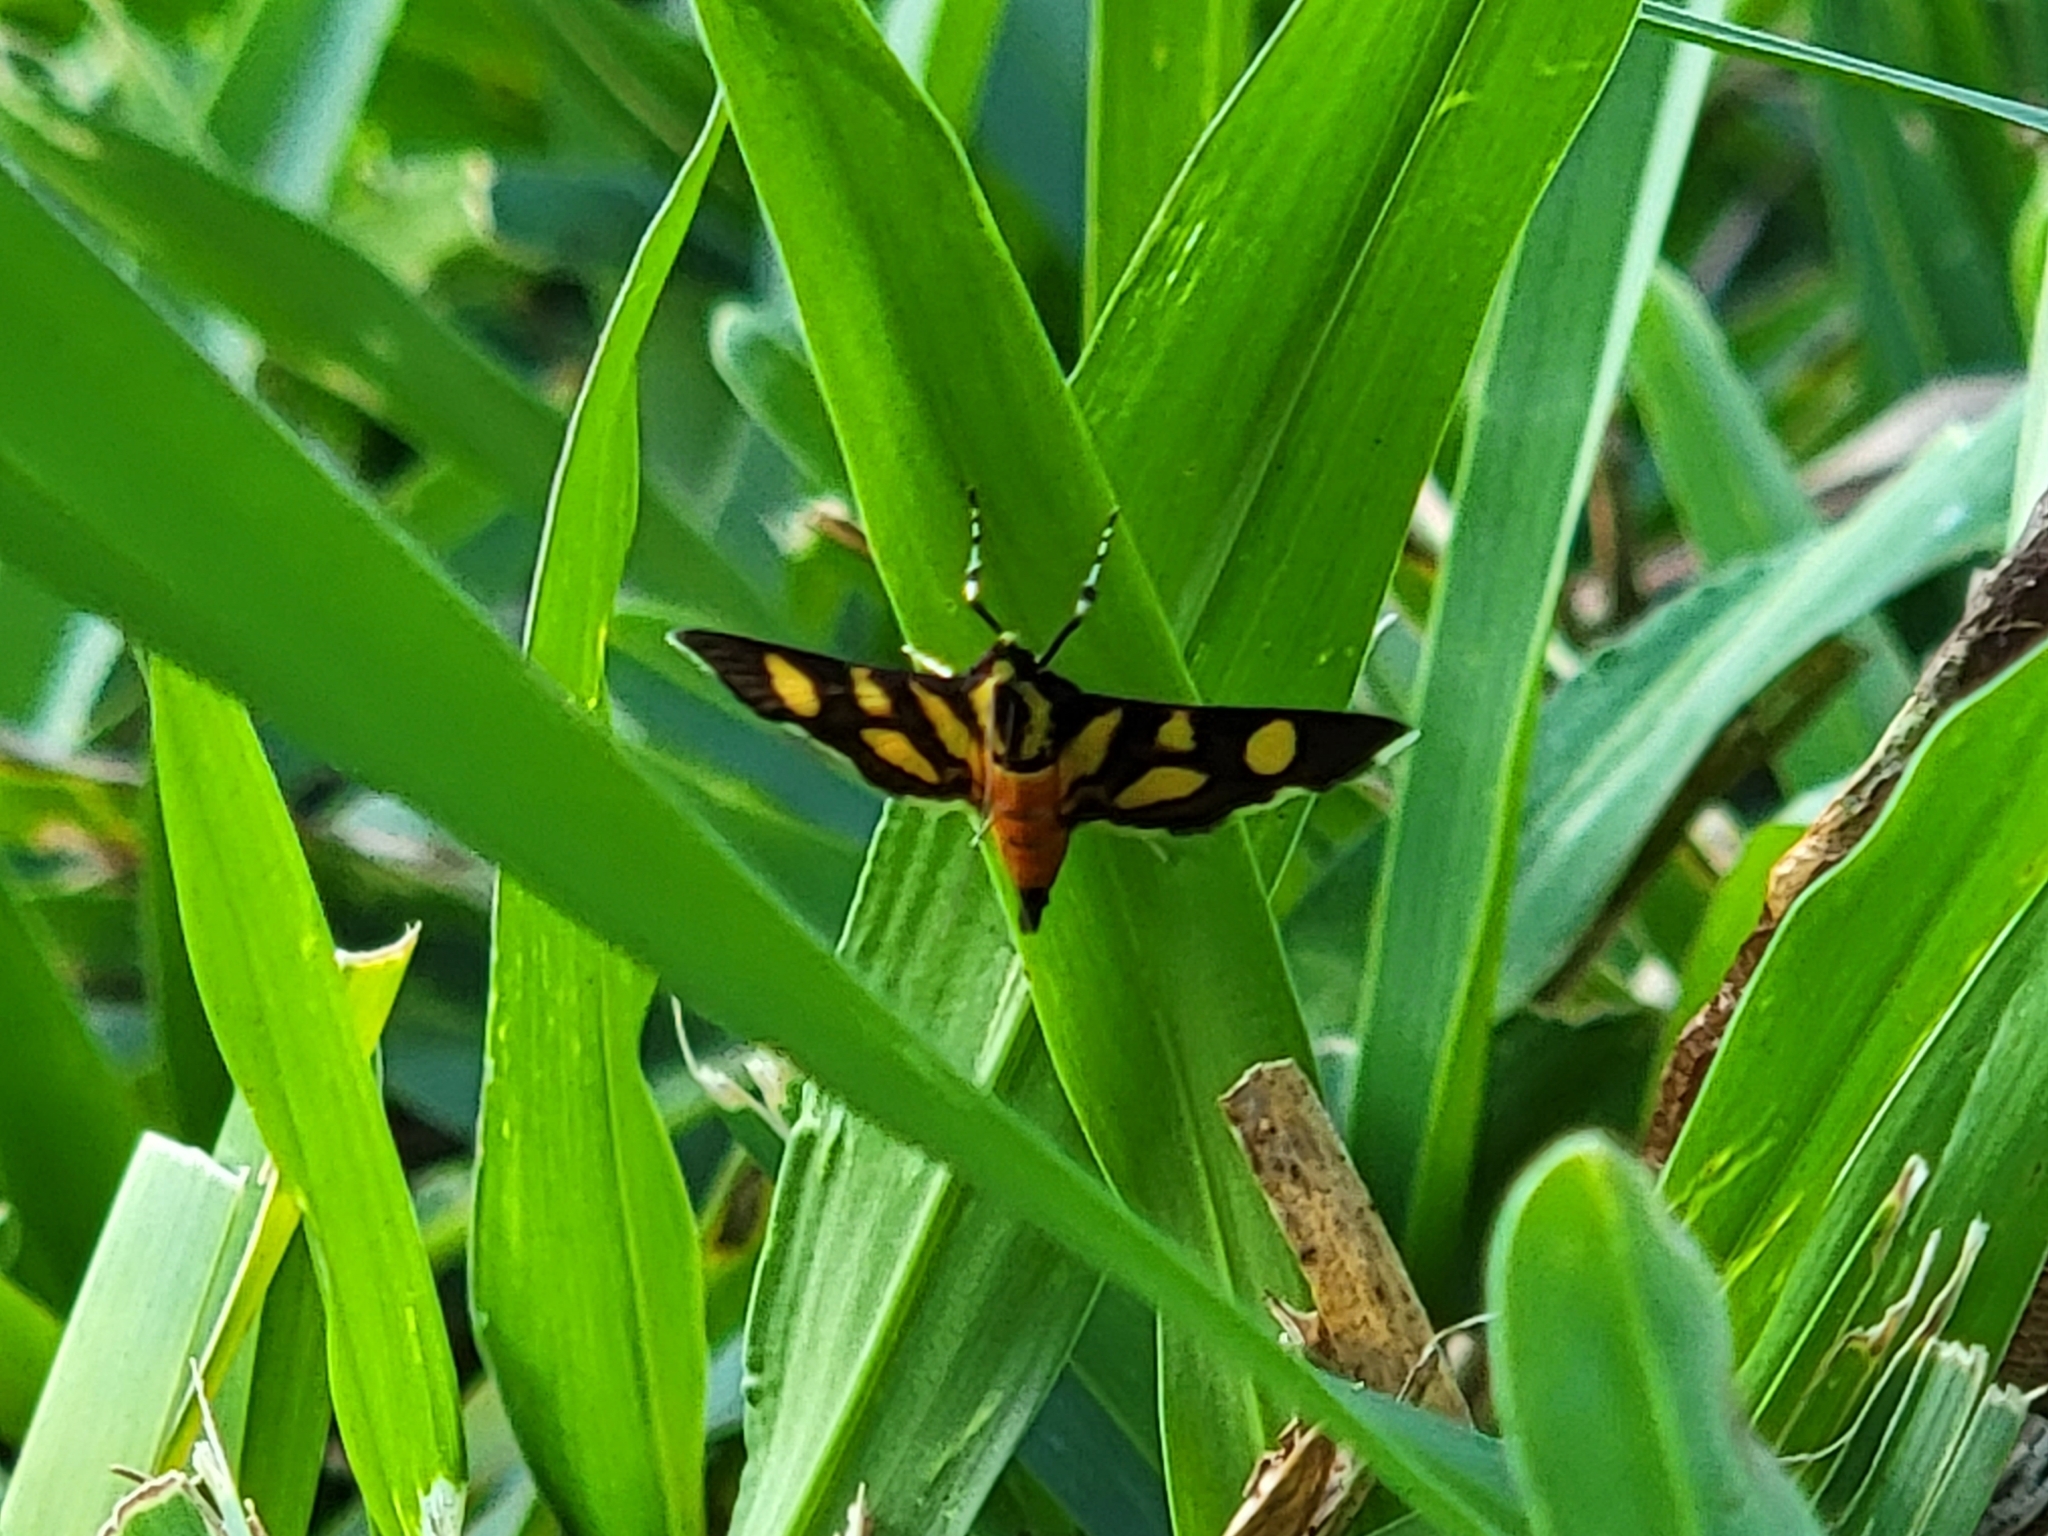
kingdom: Animalia
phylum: Arthropoda
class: Insecta
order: Lepidoptera
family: Crambidae
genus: Syngamia
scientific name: Syngamia florella
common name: Orange-spotted flower moth
